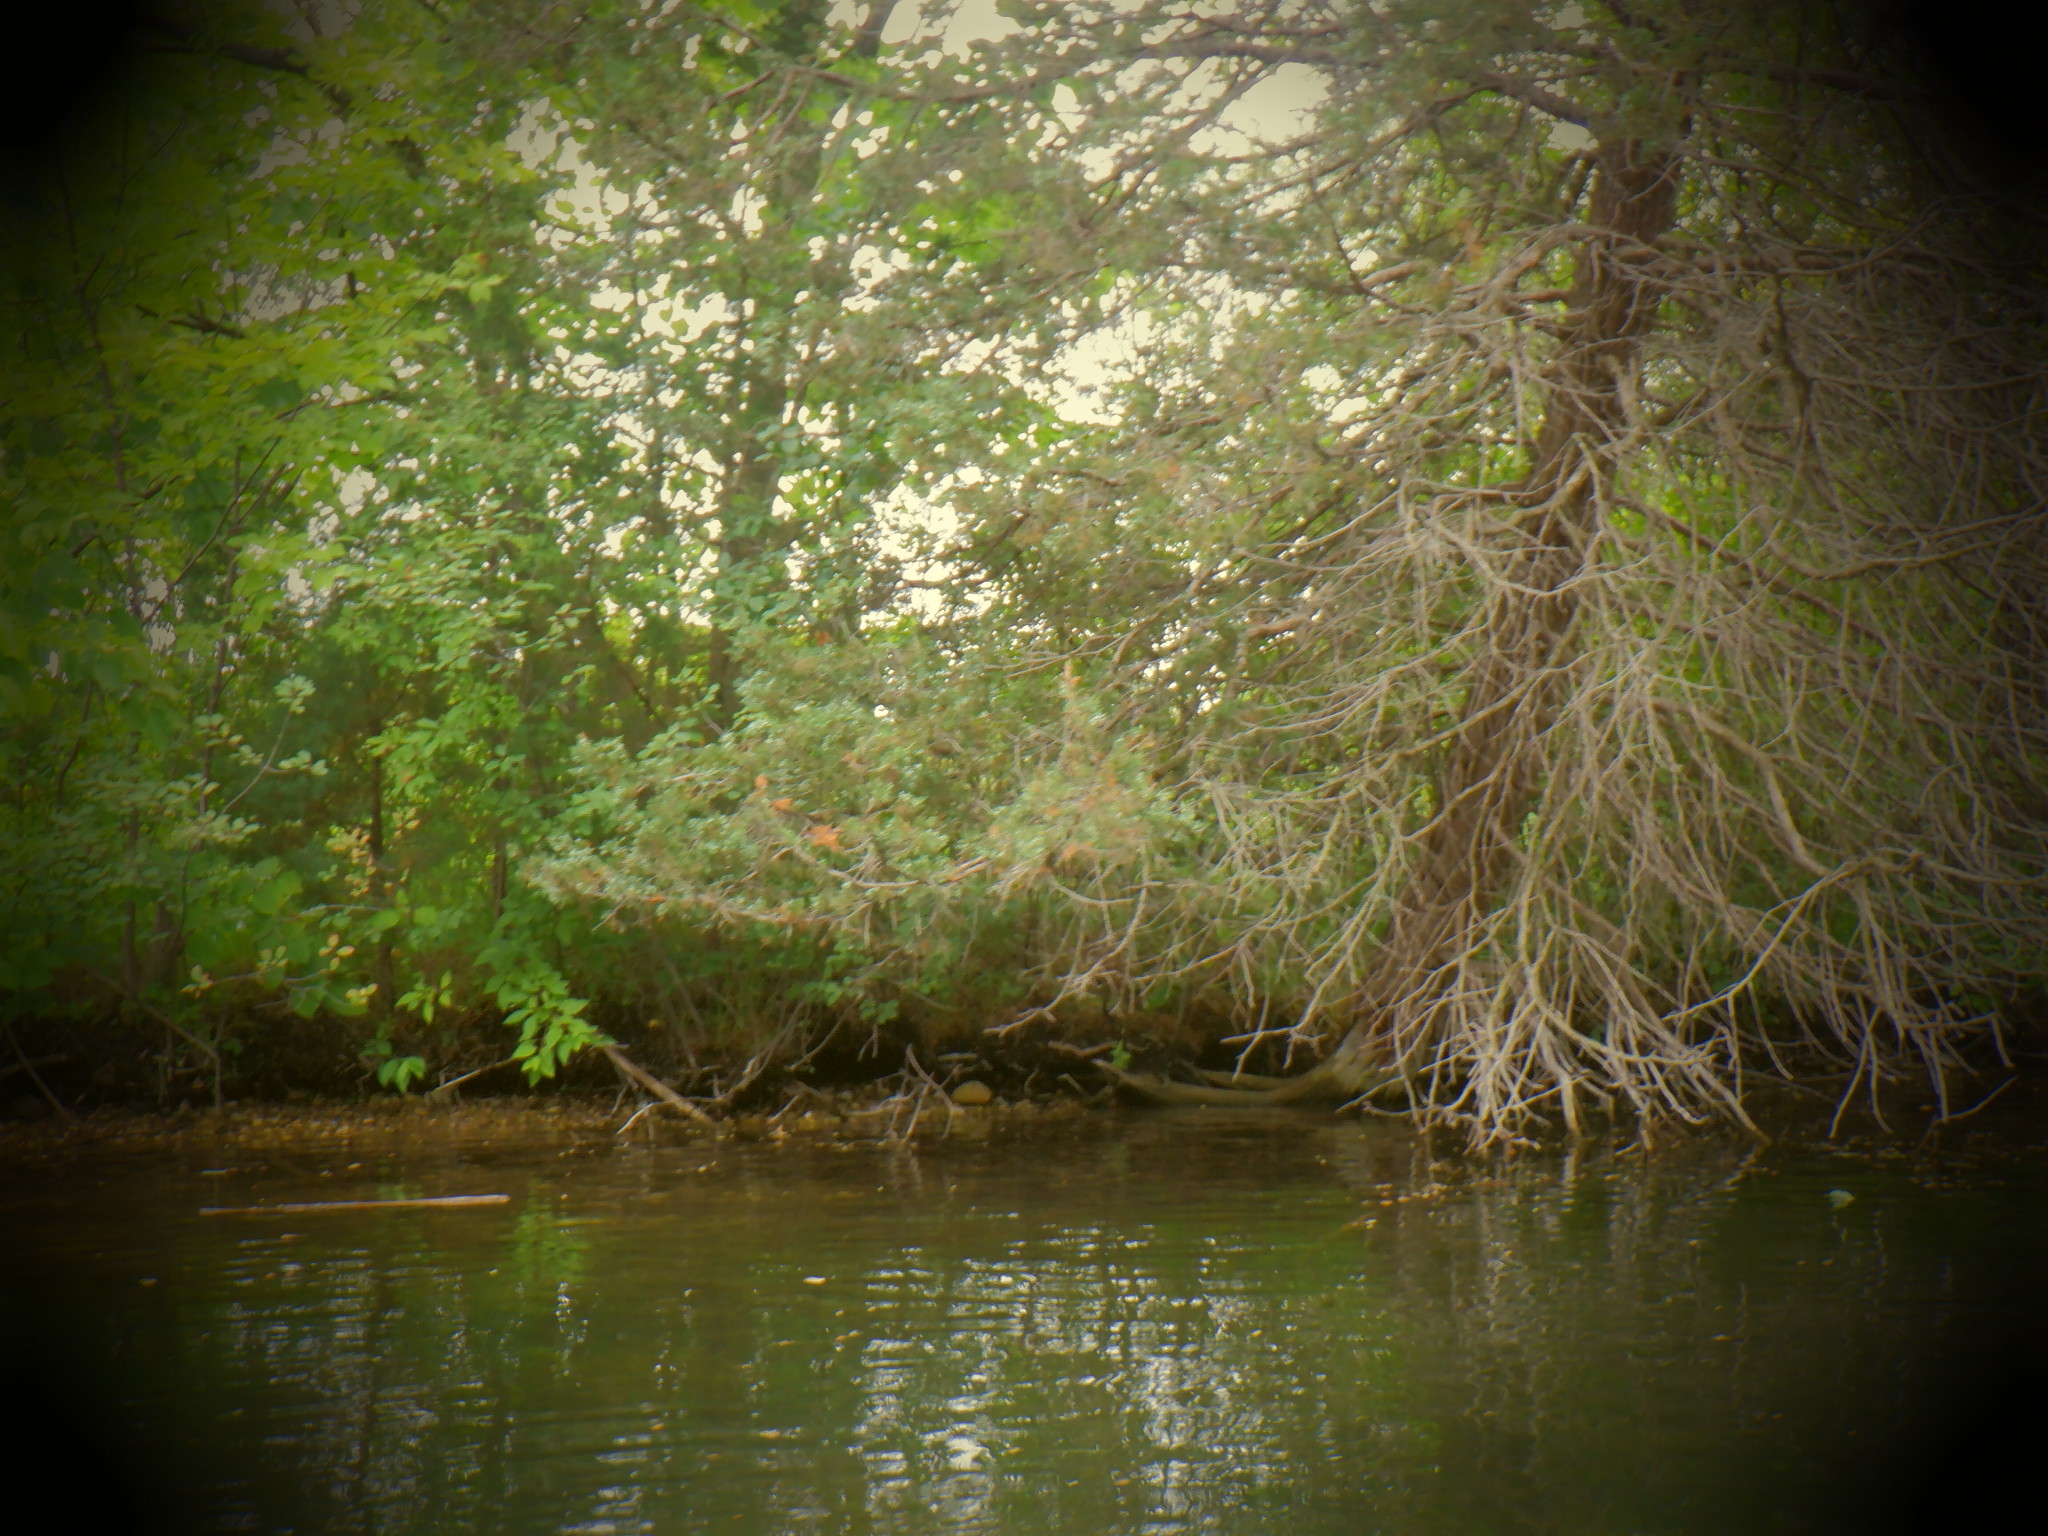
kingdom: Plantae
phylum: Tracheophyta
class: Pinopsida
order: Pinales
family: Cupressaceae
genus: Juniperus
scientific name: Juniperus virginiana
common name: Red juniper
